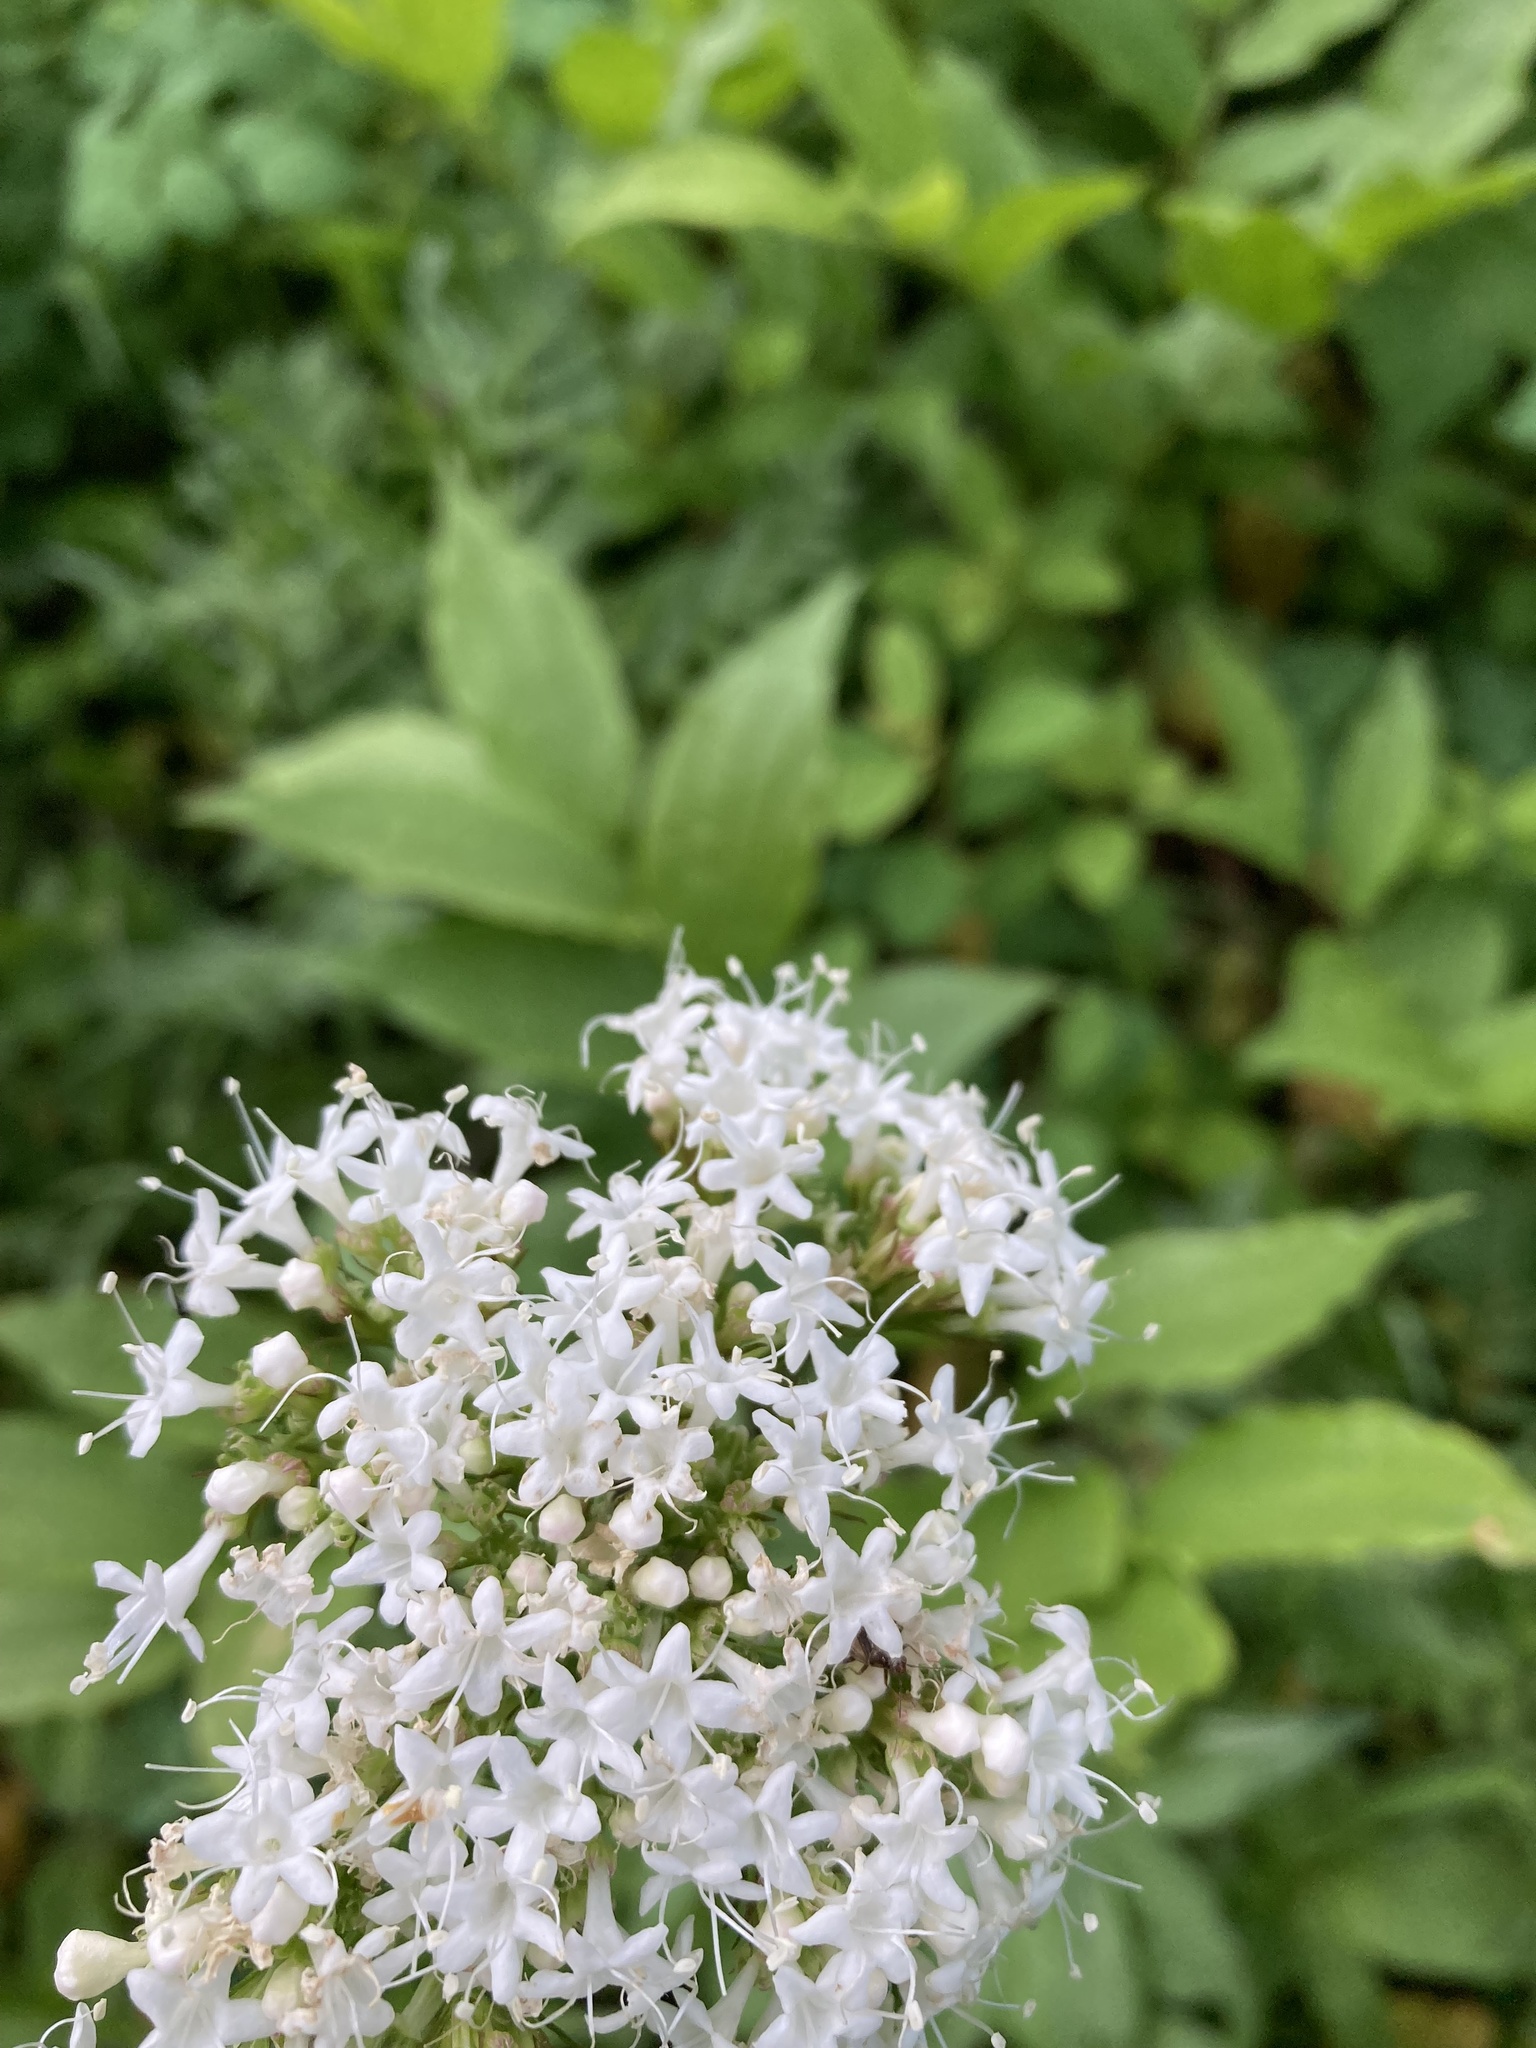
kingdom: Plantae
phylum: Tracheophyta
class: Magnoliopsida
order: Dipsacales
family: Caprifoliaceae
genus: Valeriana
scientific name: Valeriana sitchensis
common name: Pacific valerian
